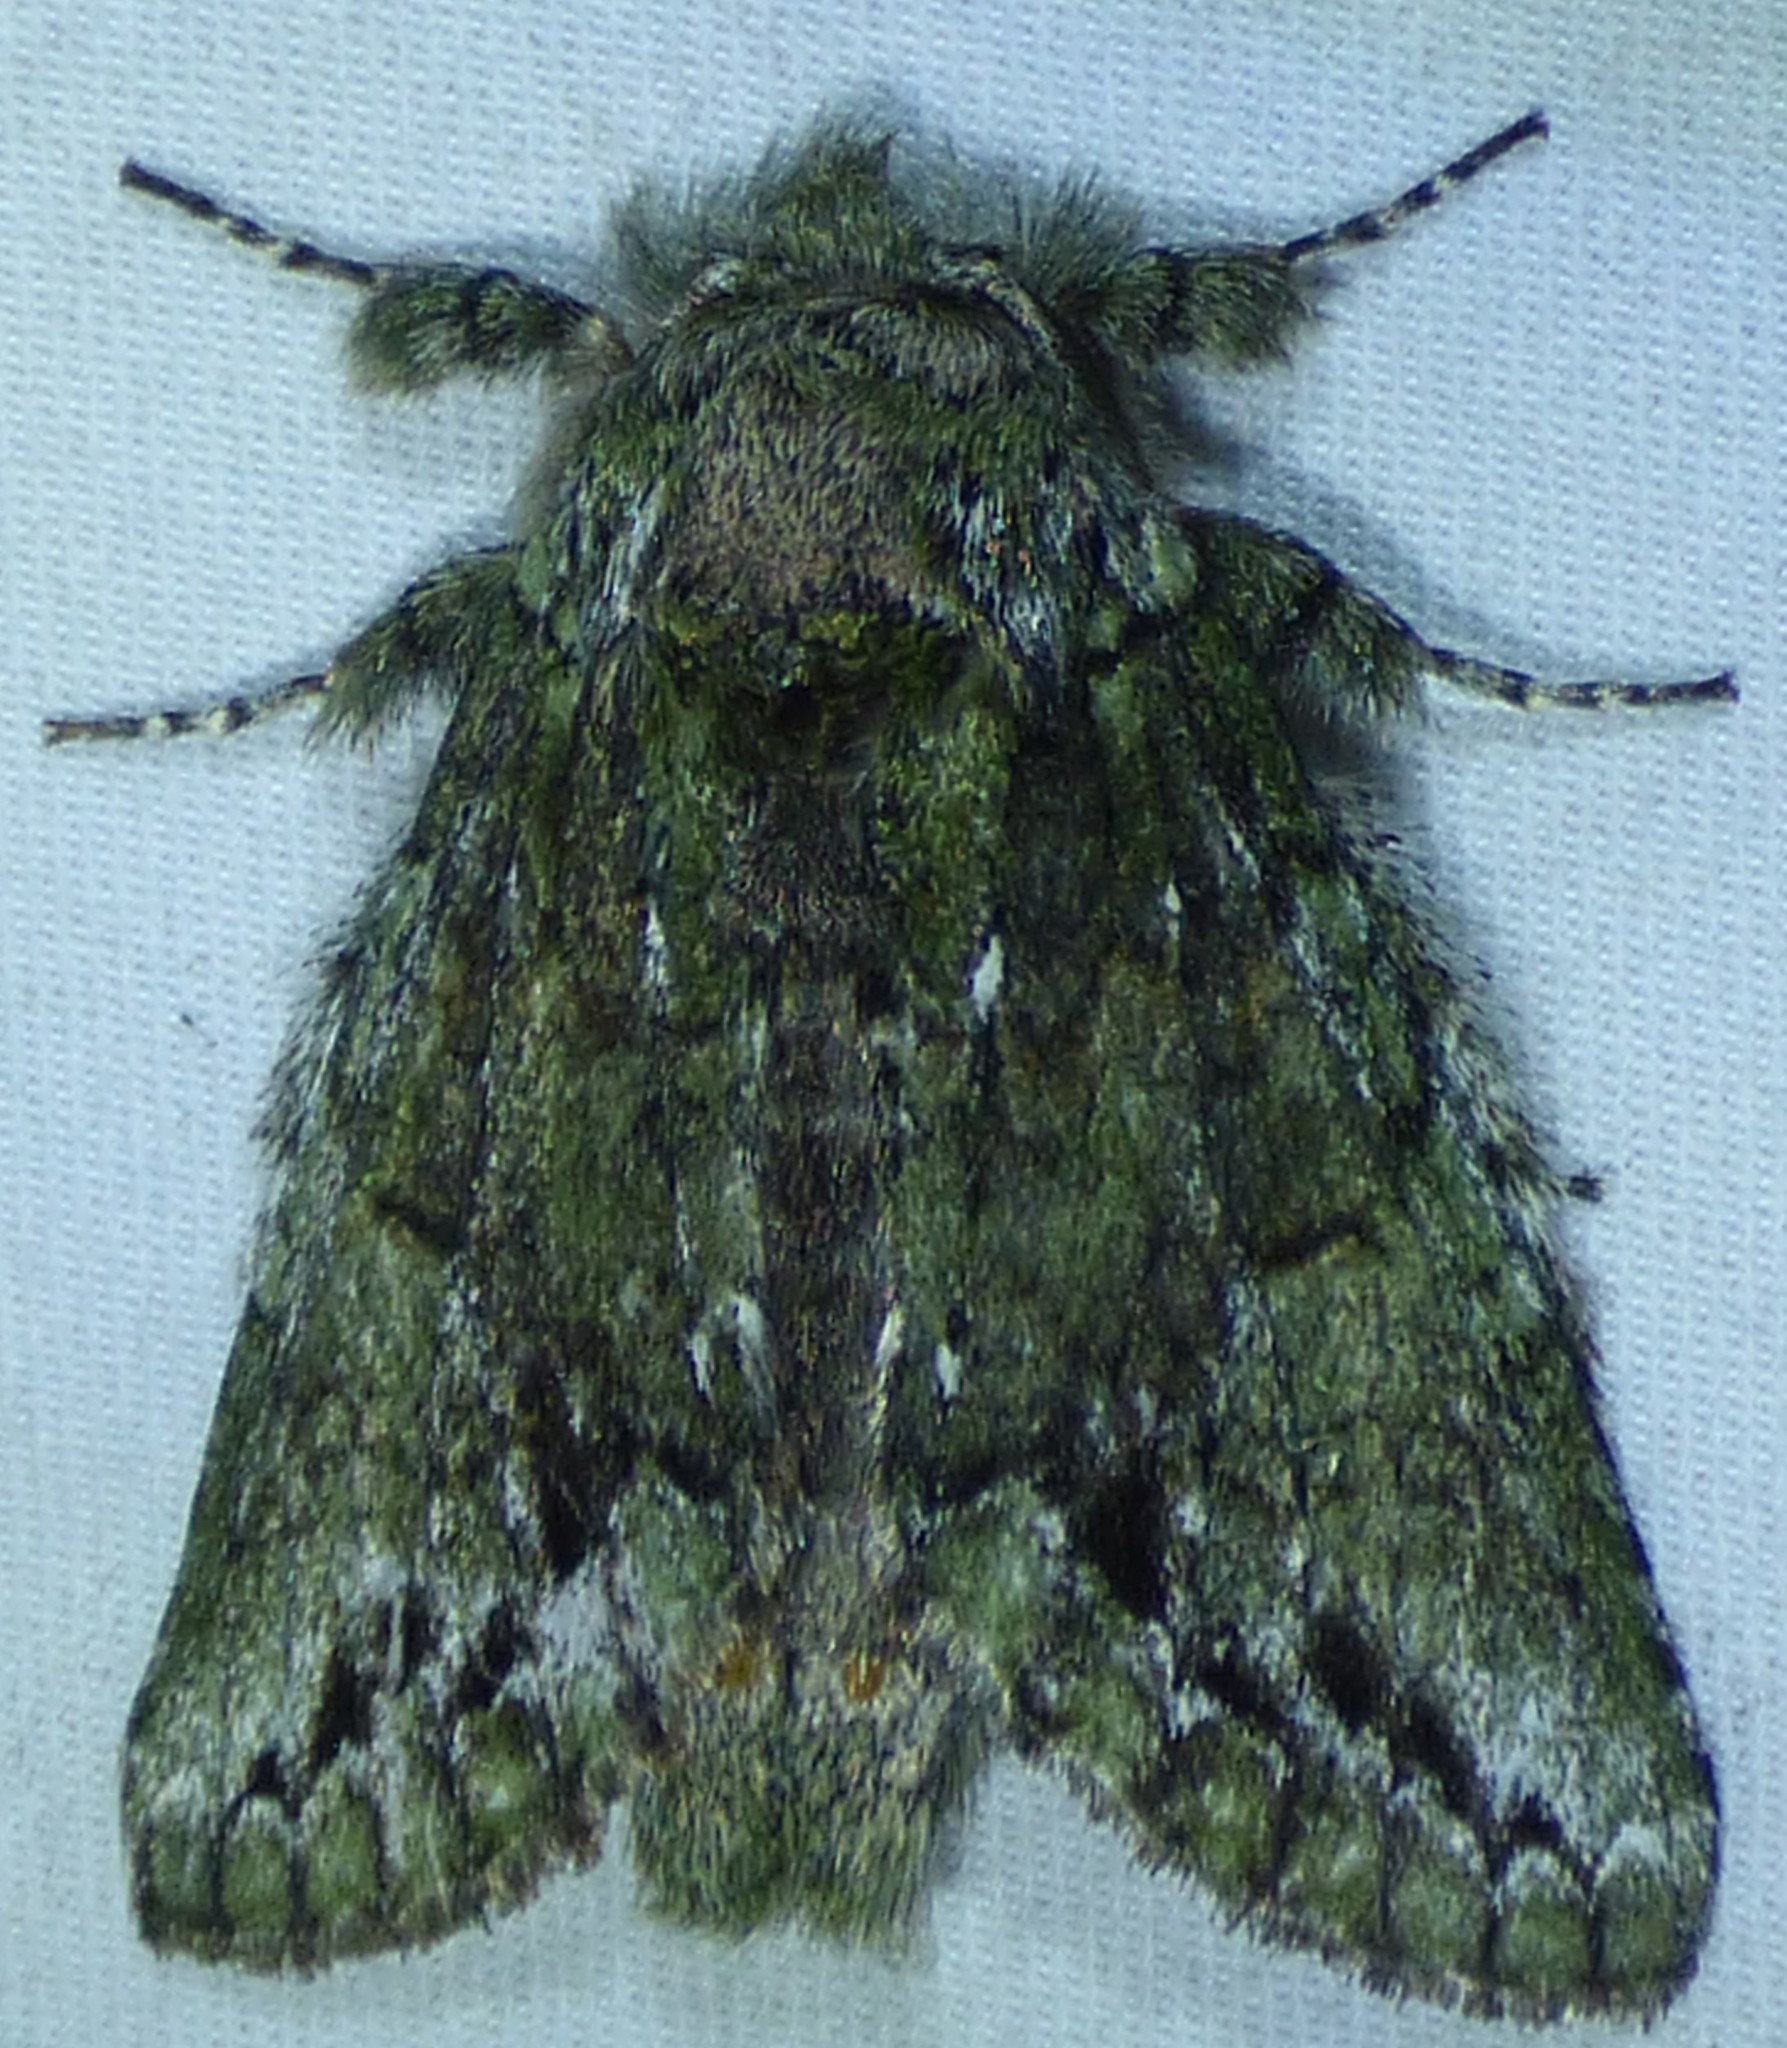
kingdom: Animalia
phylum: Arthropoda
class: Insecta
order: Lepidoptera
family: Notodontidae
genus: Heterocampa
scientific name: Heterocampa
